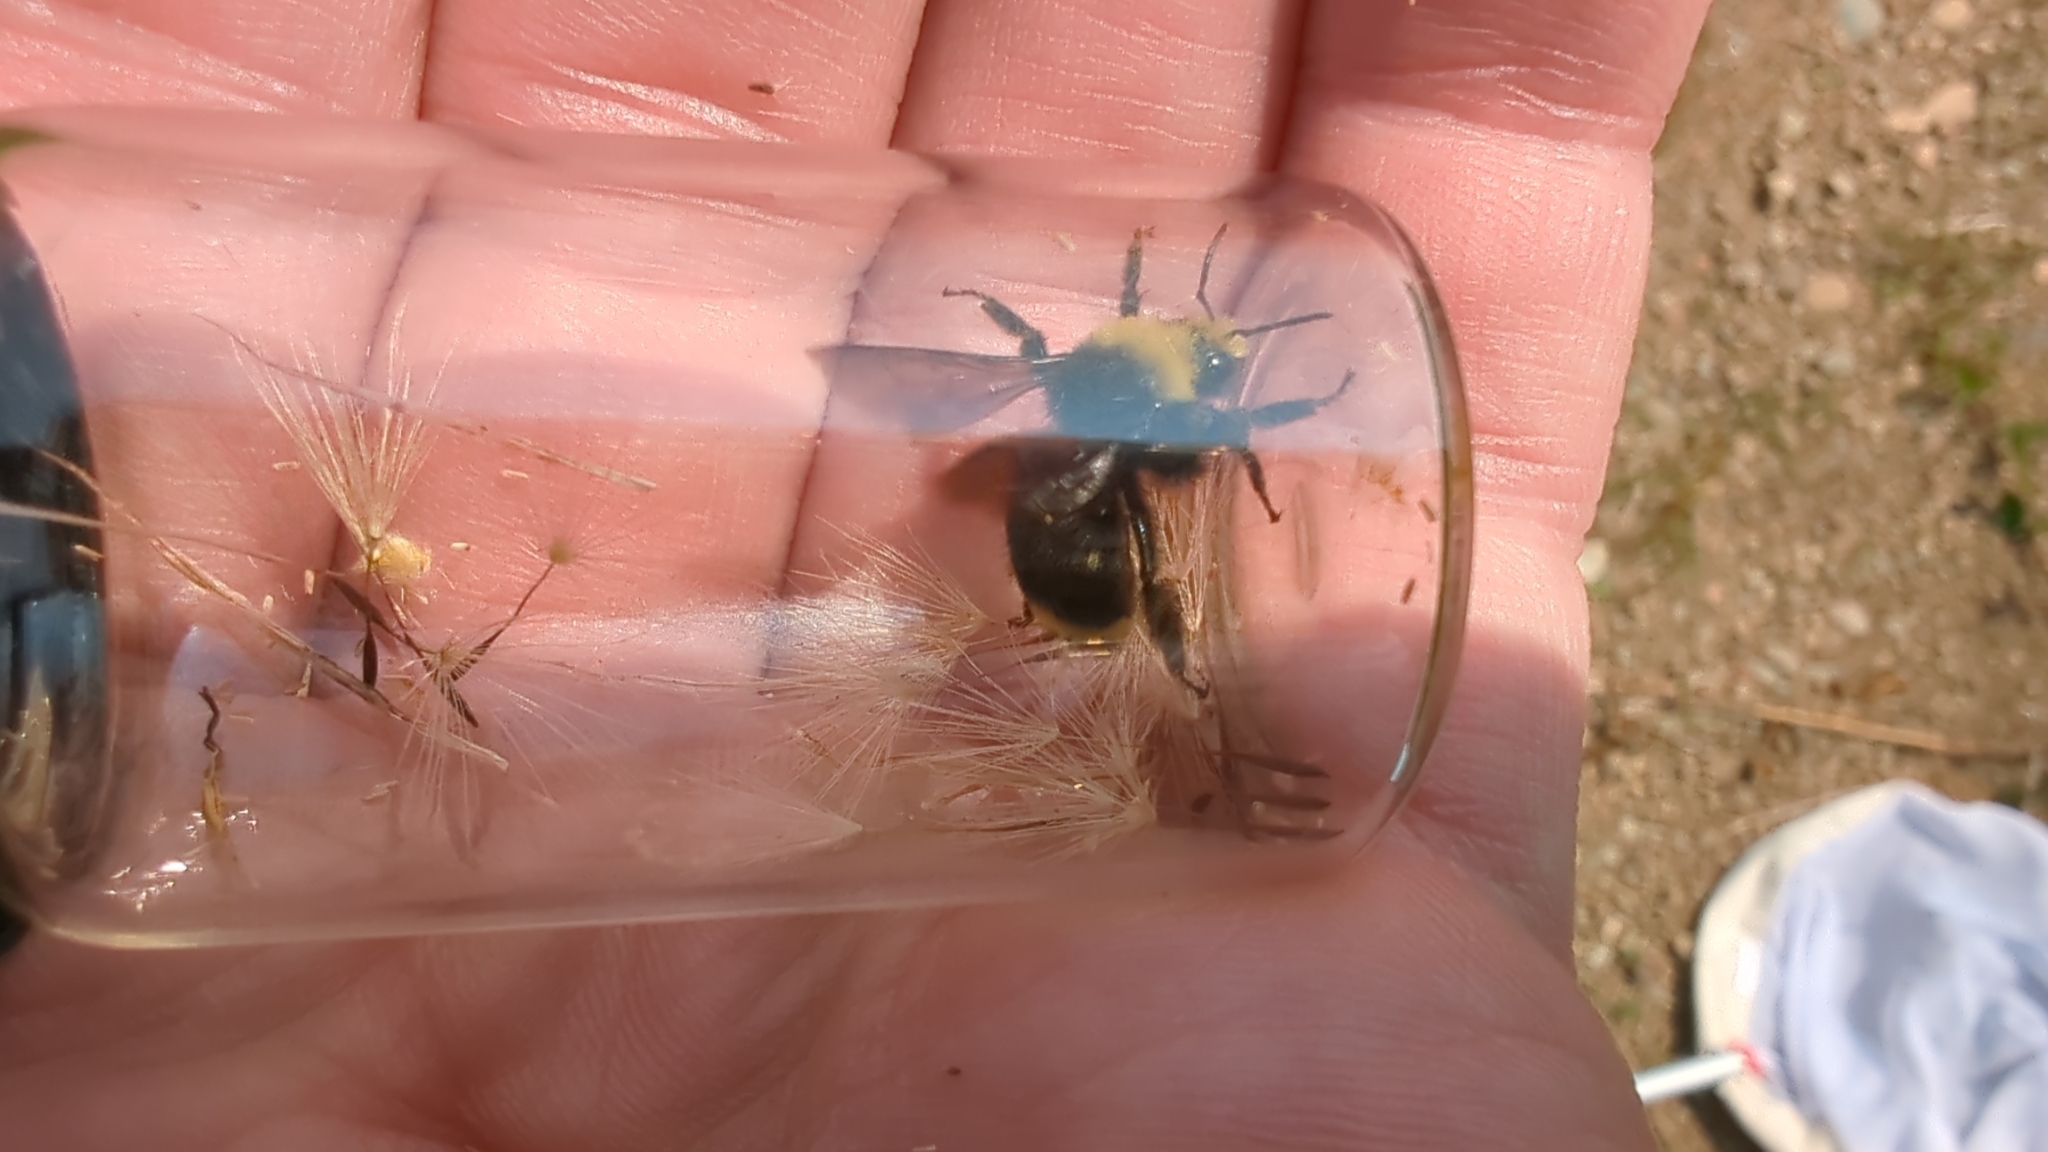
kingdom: Animalia
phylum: Arthropoda
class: Insecta
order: Hymenoptera
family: Apidae
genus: Bombus
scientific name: Bombus vosnesenskii
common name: Vosnesensky bumble bee
